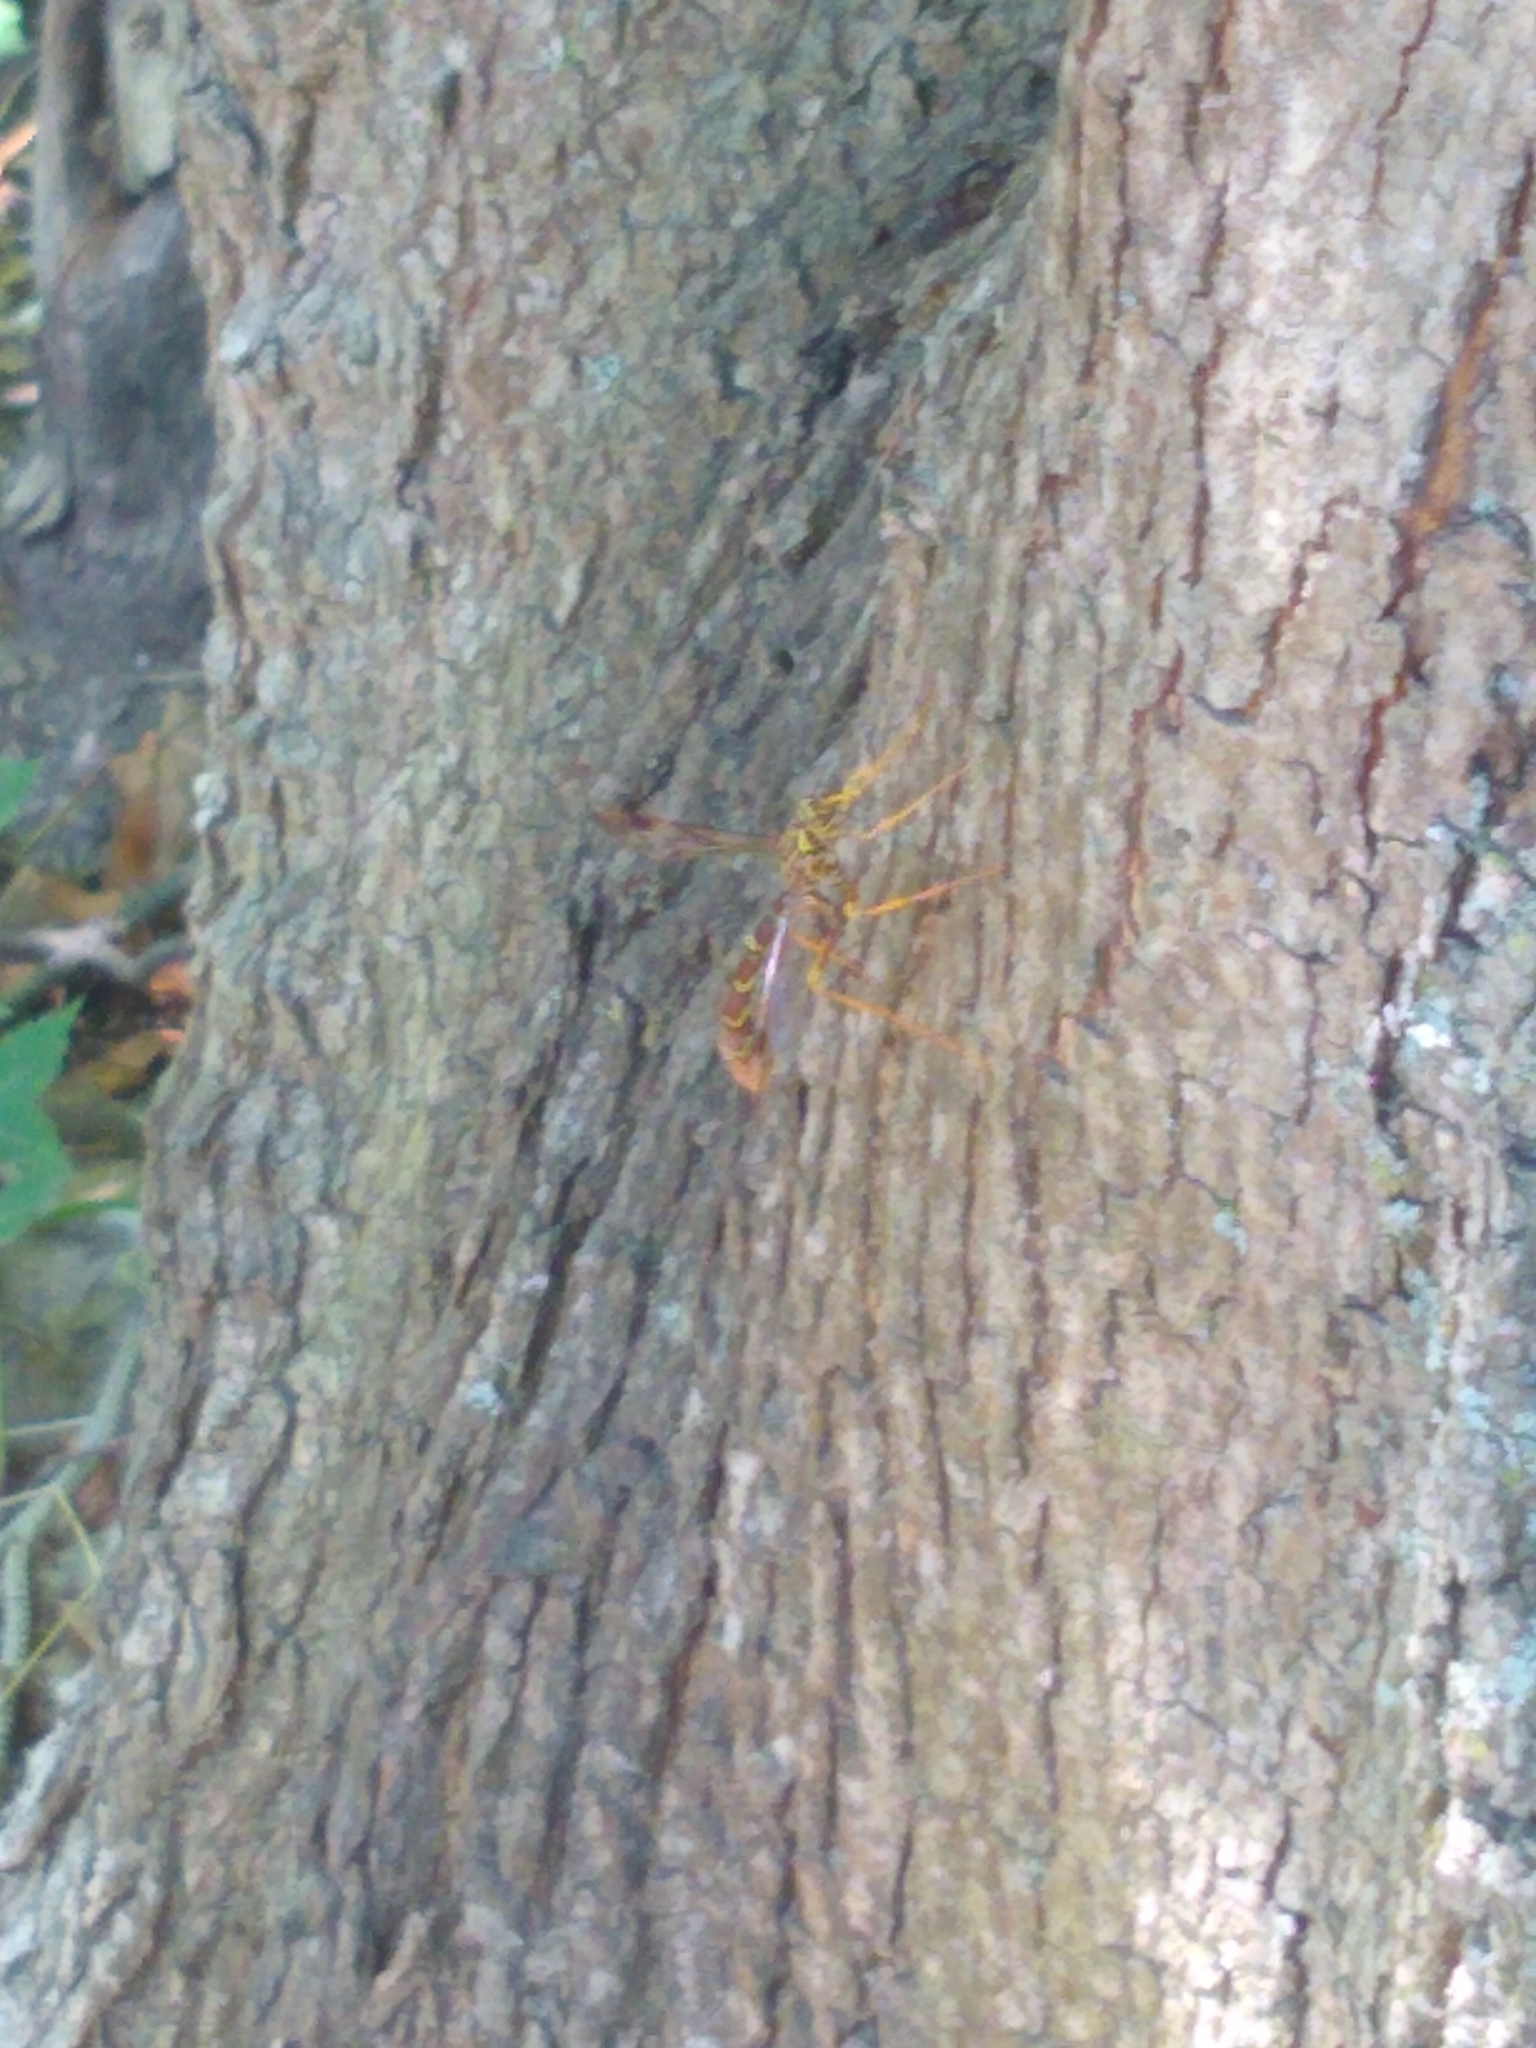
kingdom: Animalia
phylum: Arthropoda
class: Insecta
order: Hymenoptera
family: Ichneumonidae
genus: Megarhyssa
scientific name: Megarhyssa macrura
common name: Long-tailed giant ichneumonid wasp
